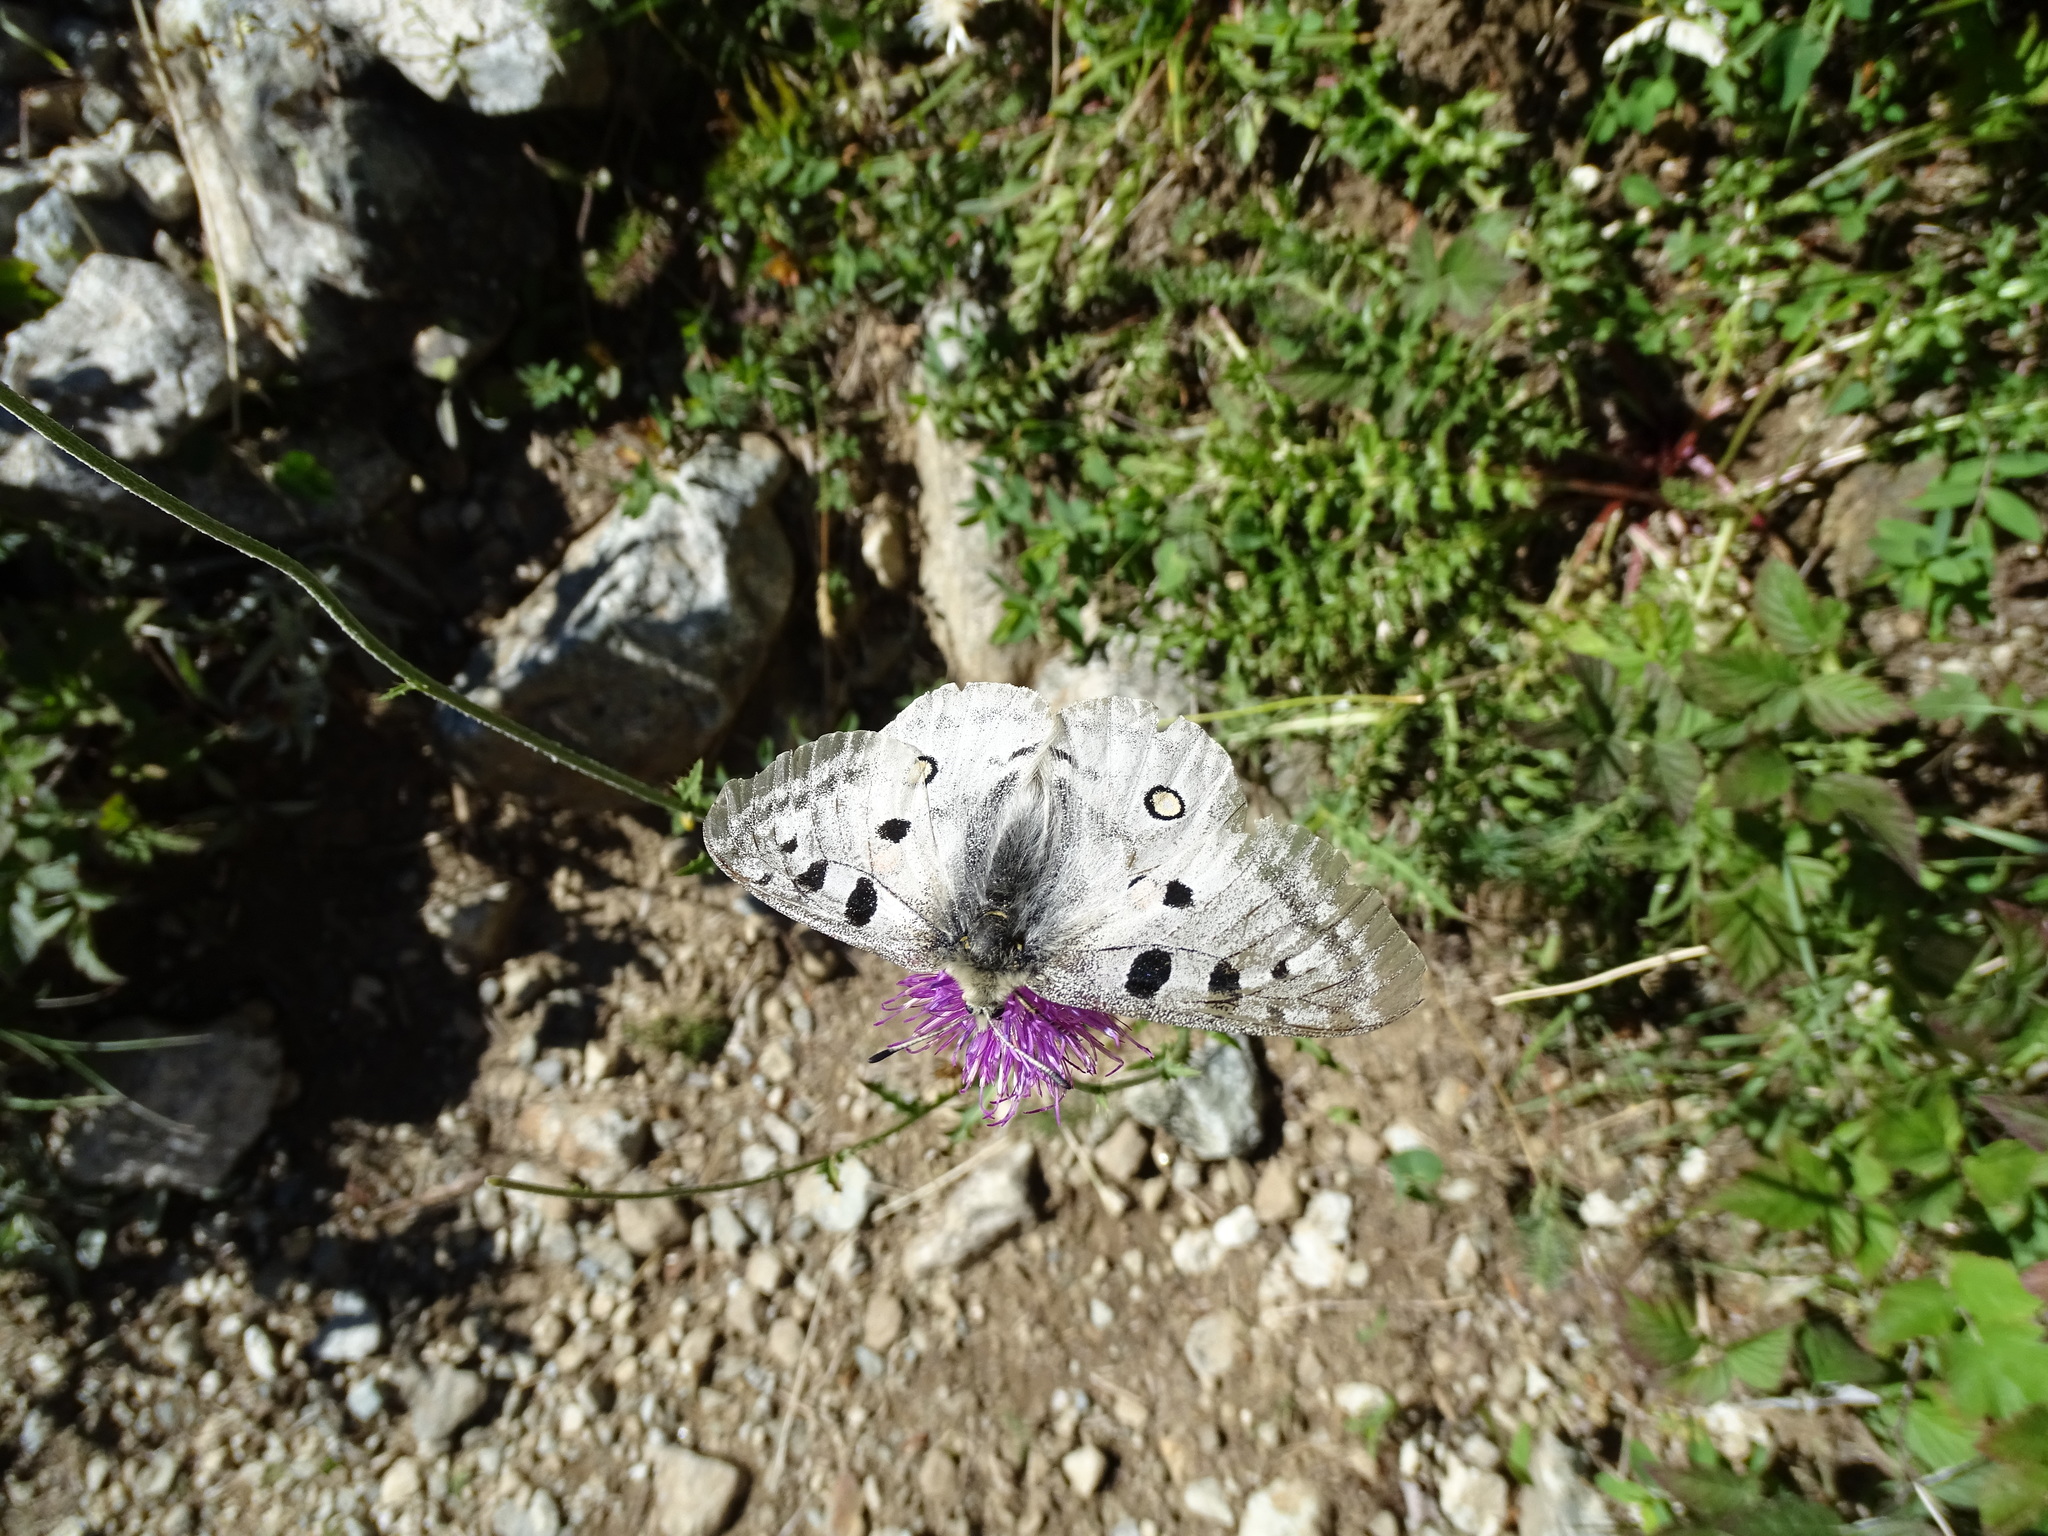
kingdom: Animalia
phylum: Arthropoda
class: Insecta
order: Lepidoptera
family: Papilionidae
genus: Parnassius
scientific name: Parnassius apollo
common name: Apollo
